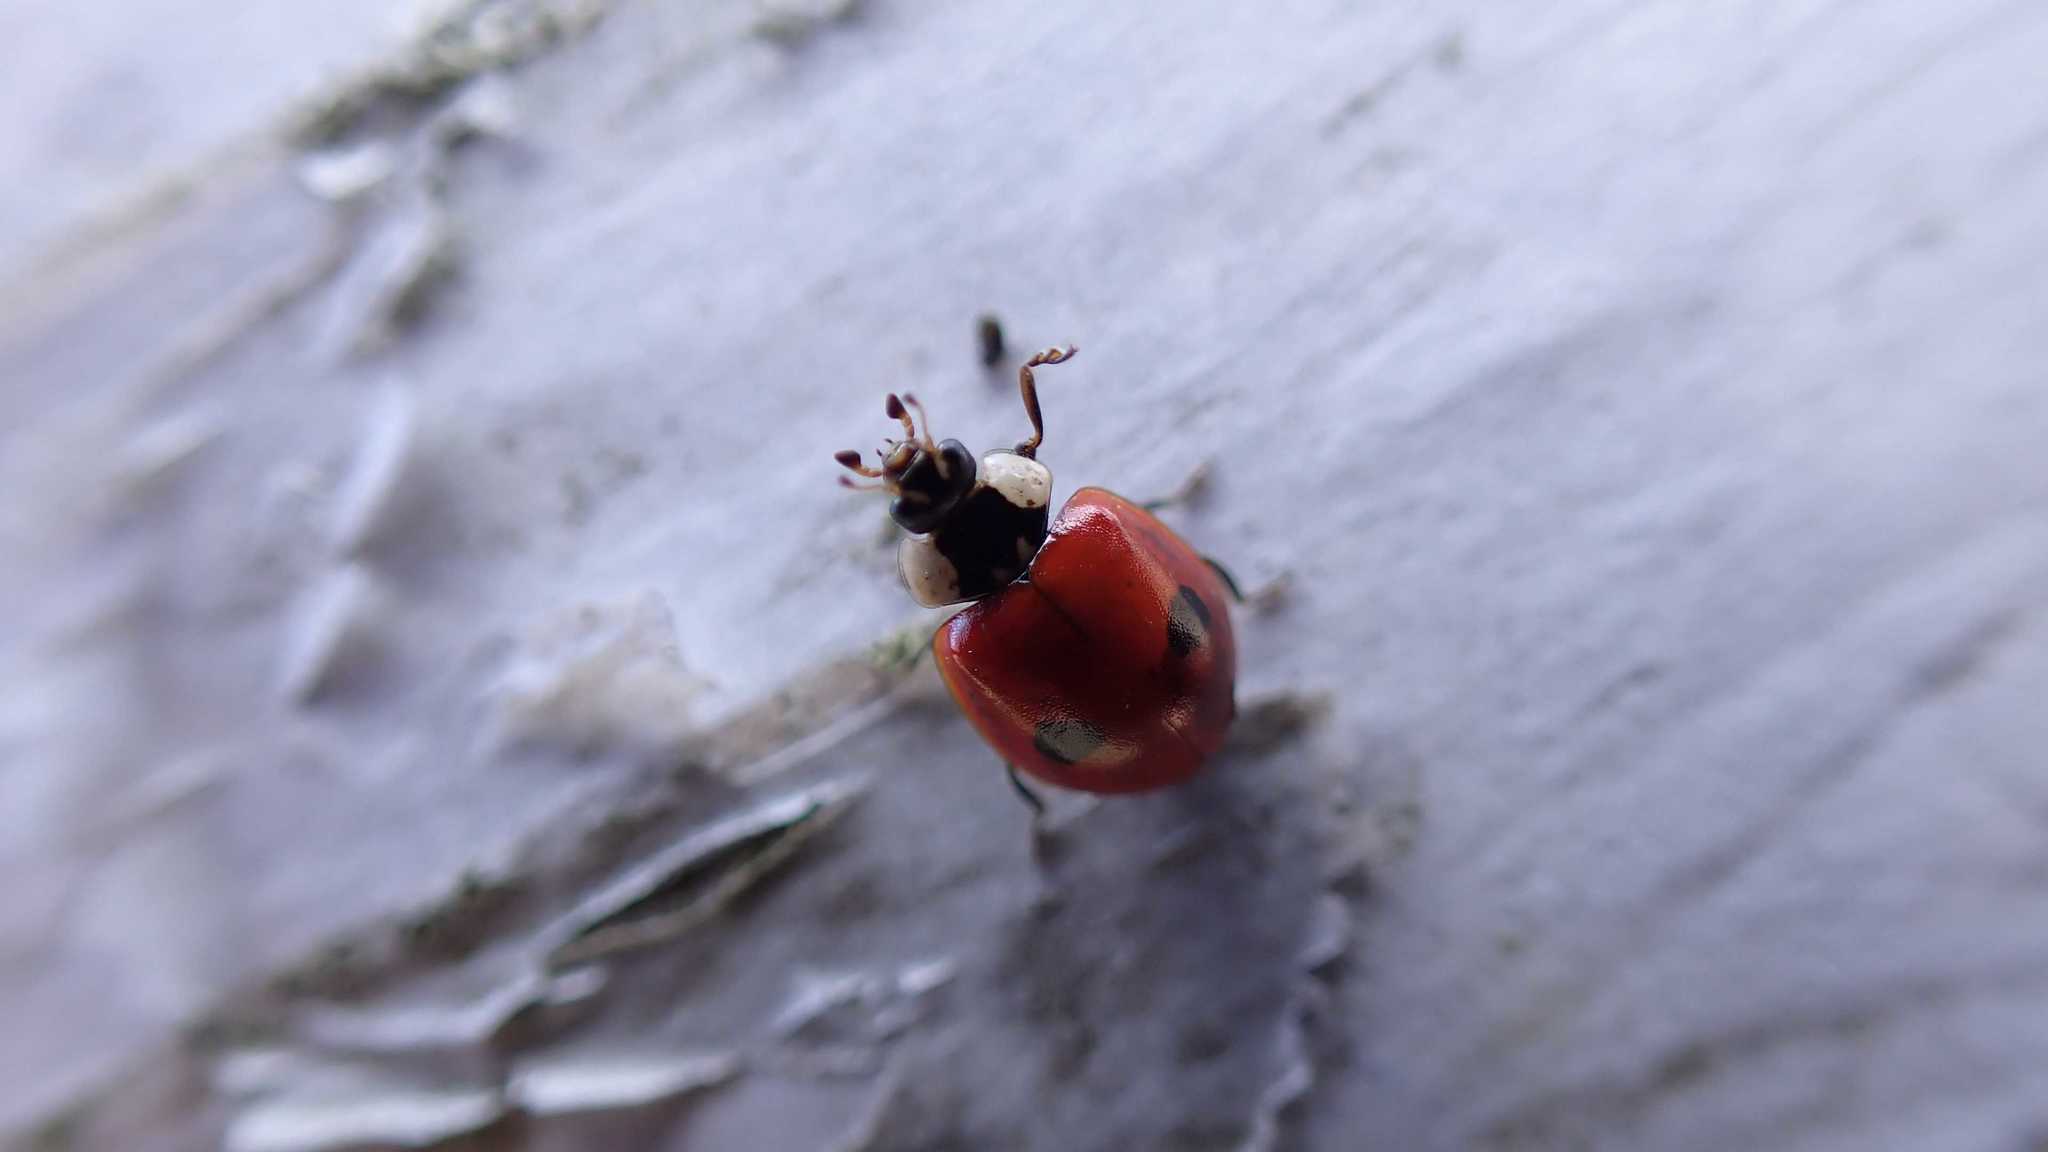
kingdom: Animalia
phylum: Arthropoda
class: Insecta
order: Coleoptera
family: Coccinellidae
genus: Adalia
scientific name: Adalia bipunctata
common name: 2-spot ladybird
